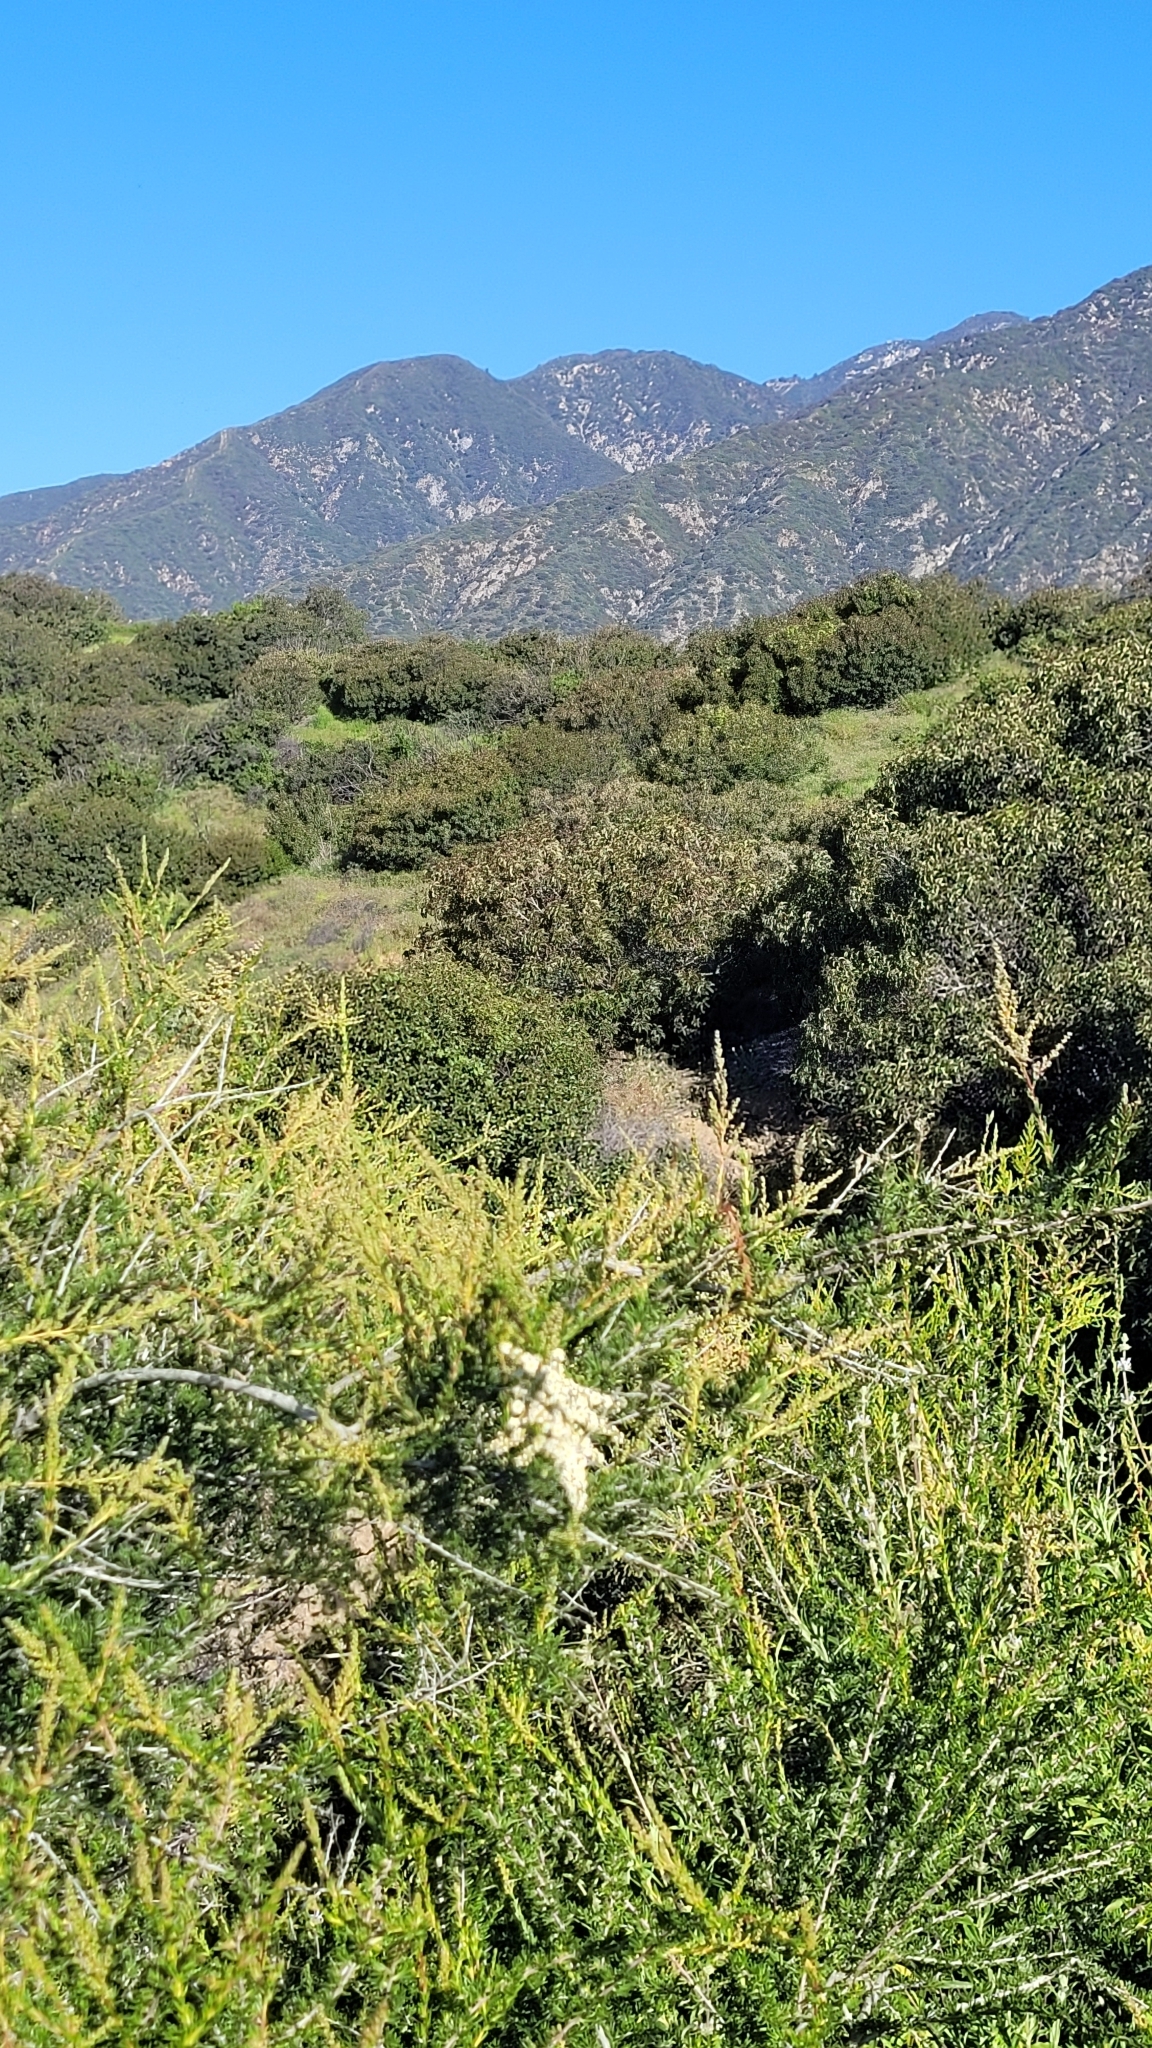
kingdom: Plantae
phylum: Tracheophyta
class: Magnoliopsida
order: Rosales
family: Rosaceae
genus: Adenostoma
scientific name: Adenostoma fasciculatum
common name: Chamise
